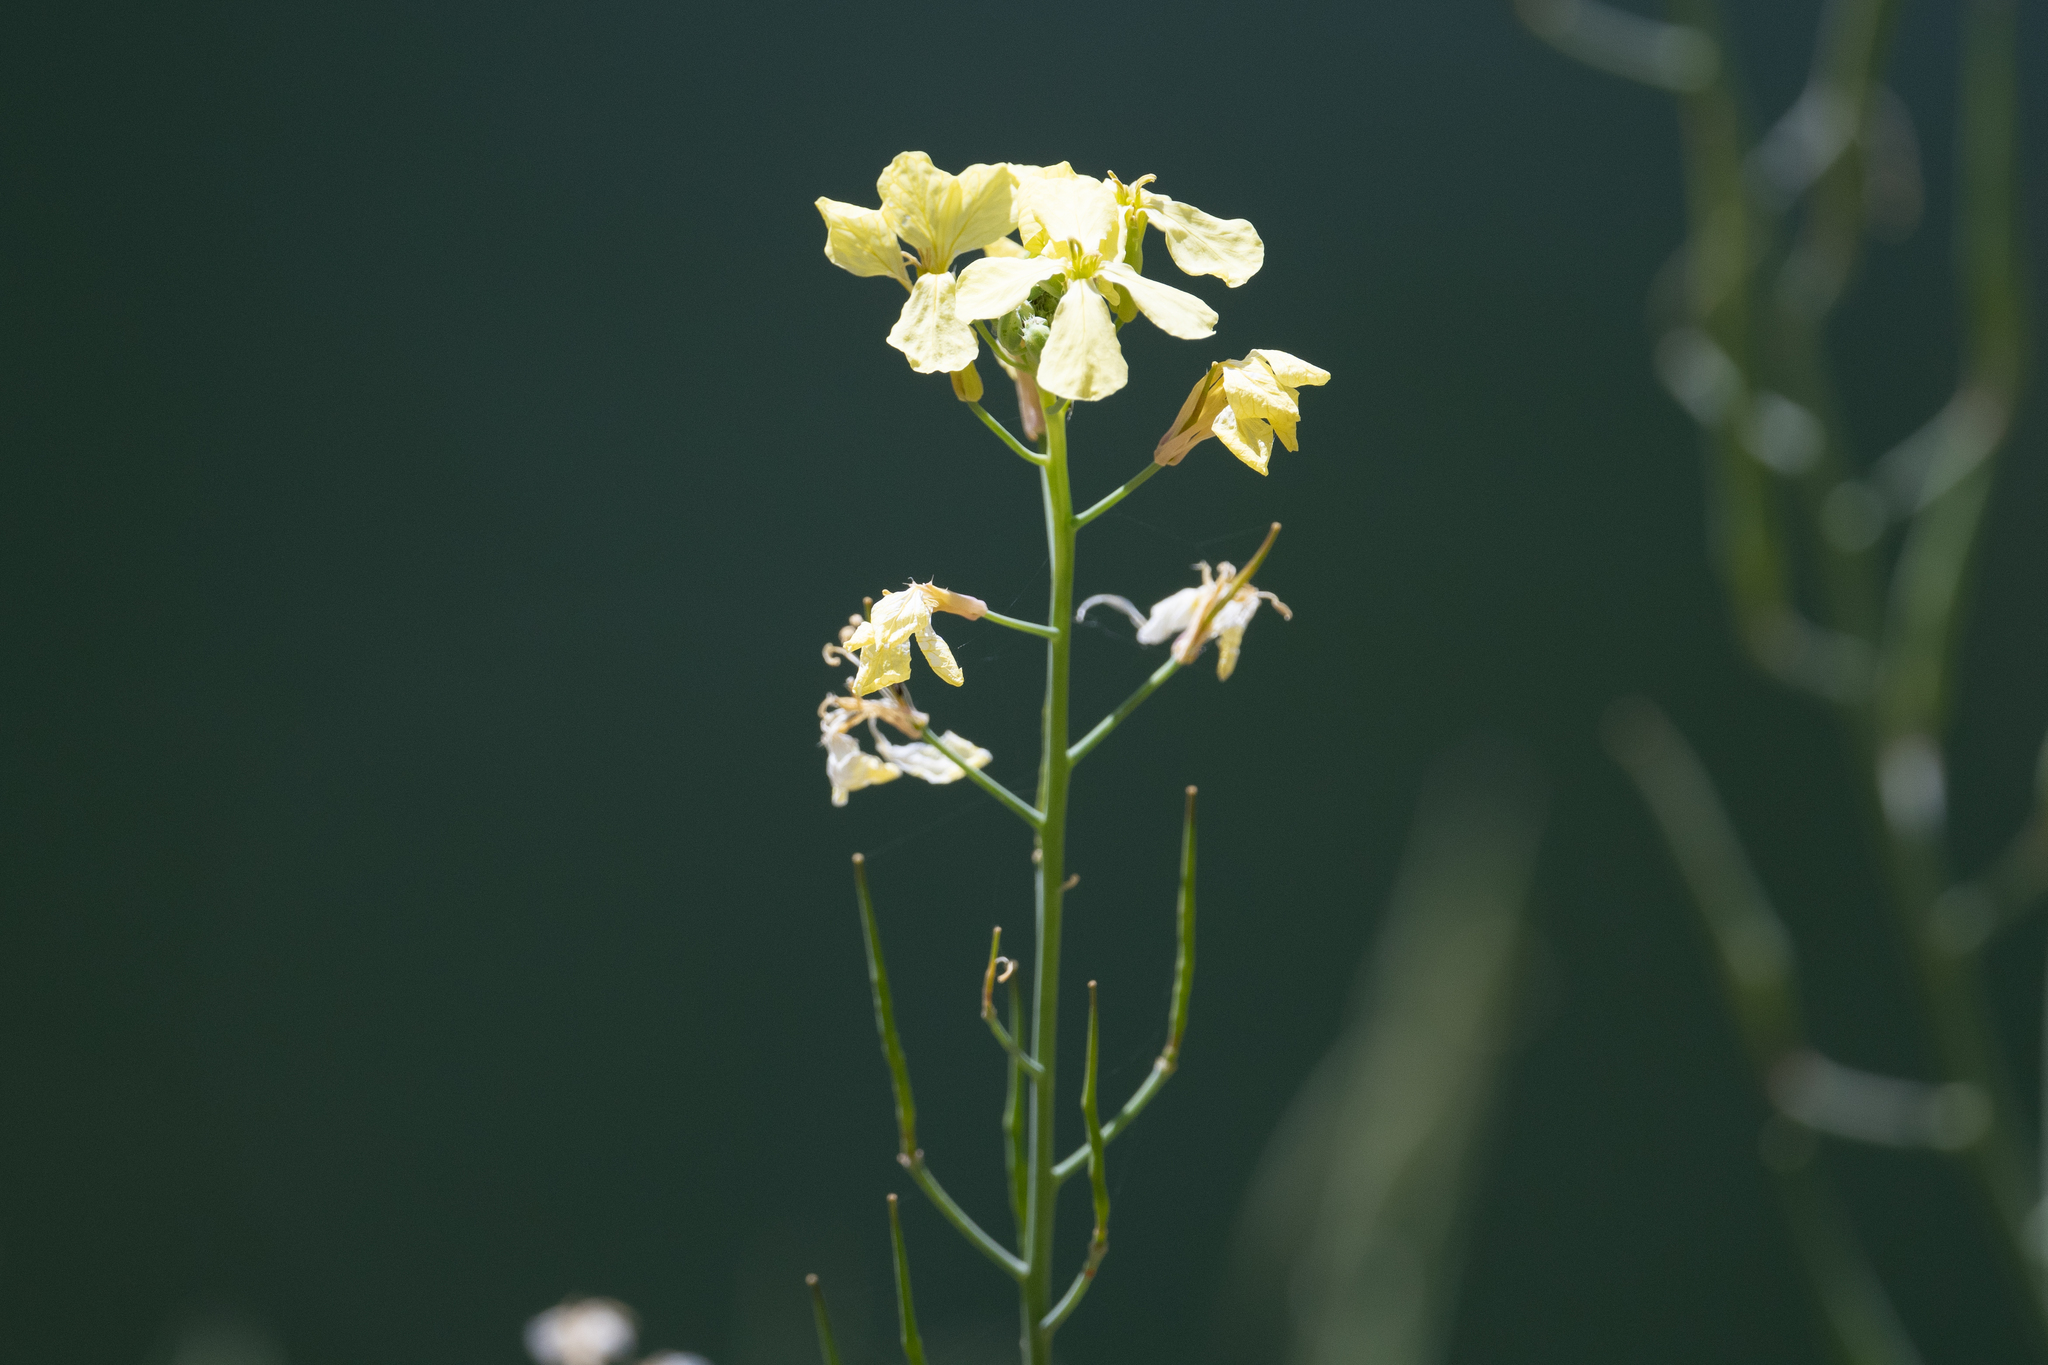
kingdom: Plantae
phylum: Tracheophyta
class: Magnoliopsida
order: Brassicales
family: Brassicaceae
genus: Raphanus
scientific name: Raphanus raphanistrum
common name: Wild radish
